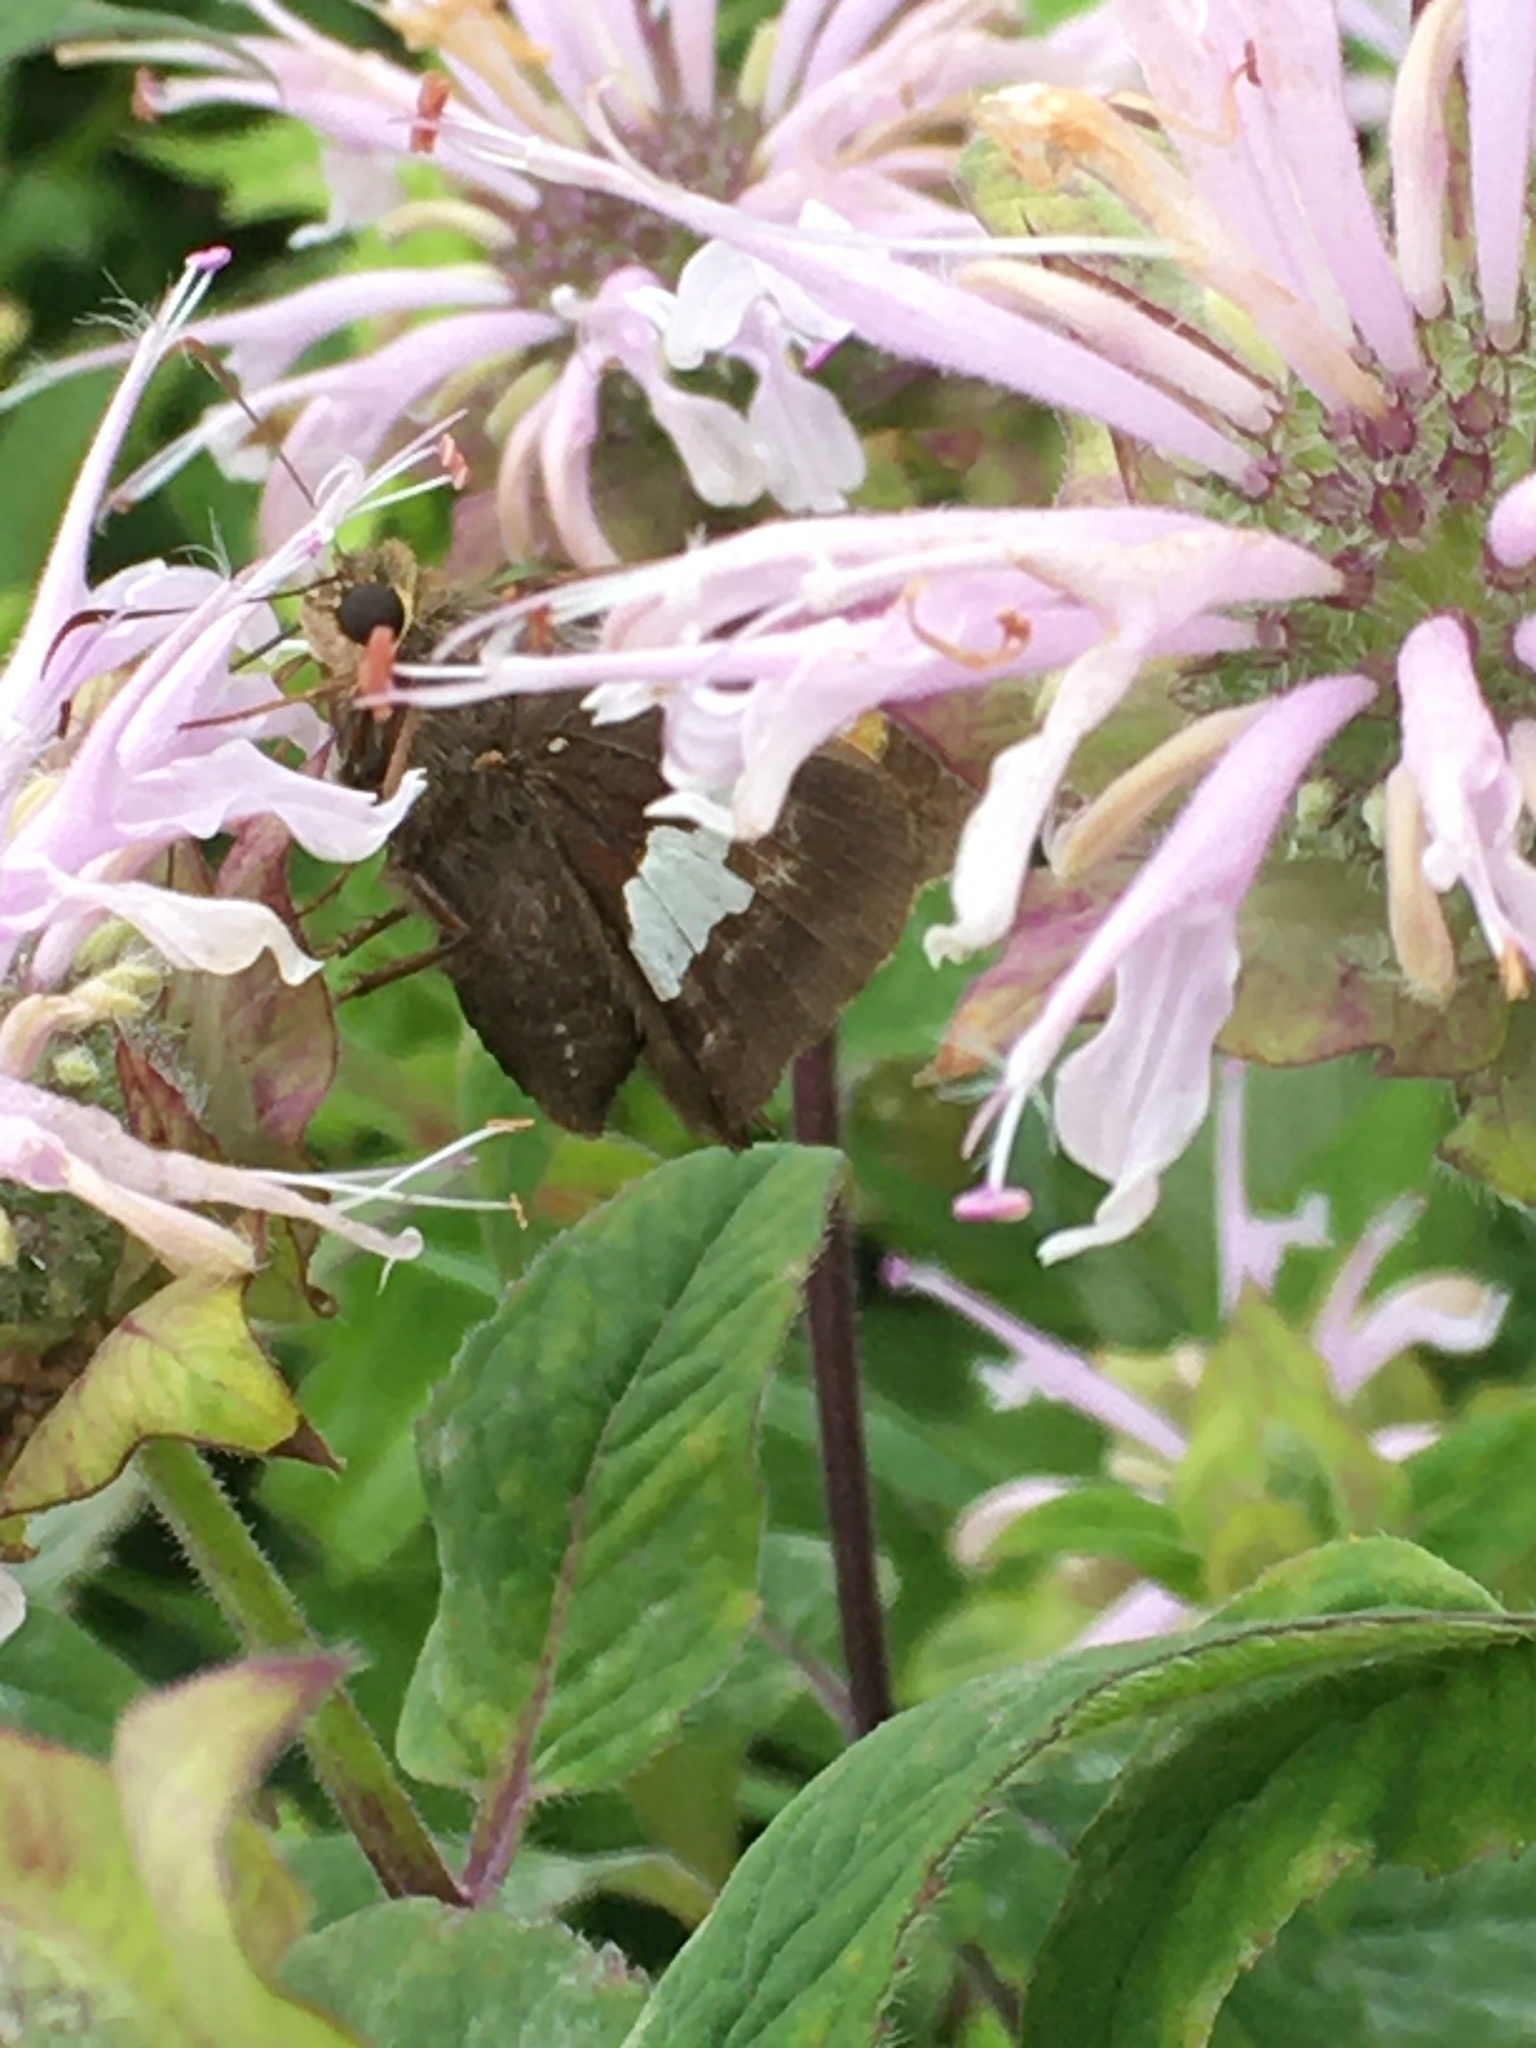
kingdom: Animalia
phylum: Arthropoda
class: Insecta
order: Lepidoptera
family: Hesperiidae
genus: Epargyreus
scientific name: Epargyreus clarus
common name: Silver-spotted skipper
